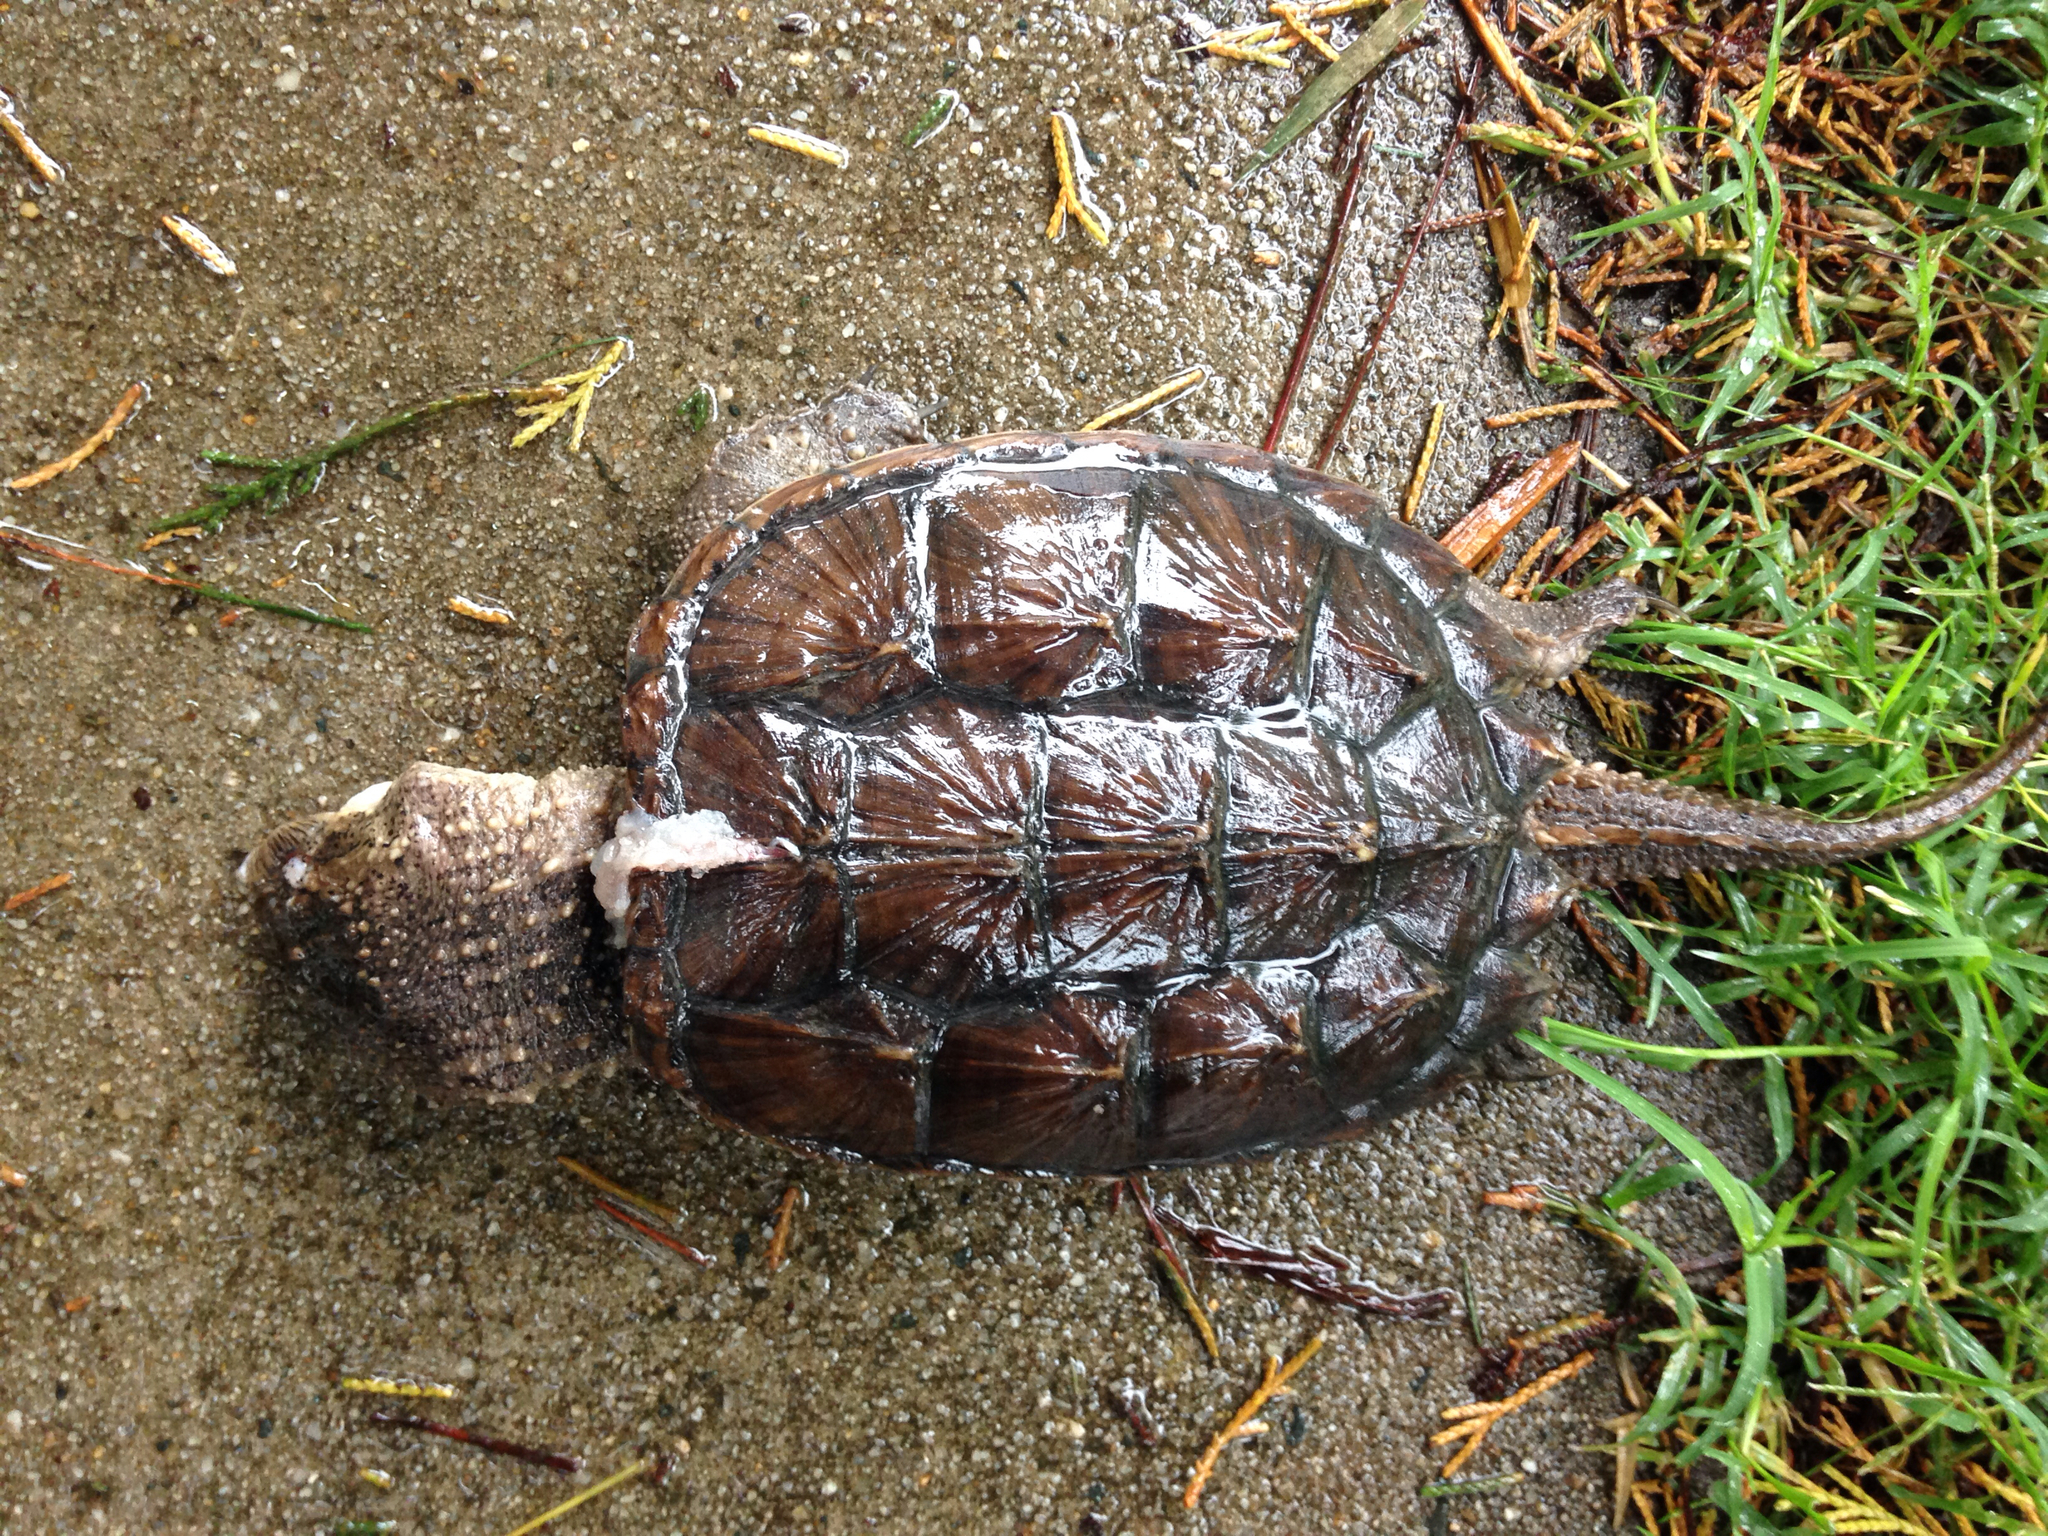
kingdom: Animalia
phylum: Chordata
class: Testudines
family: Chelydridae
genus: Chelydra
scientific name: Chelydra serpentina
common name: Common snapping turtle
